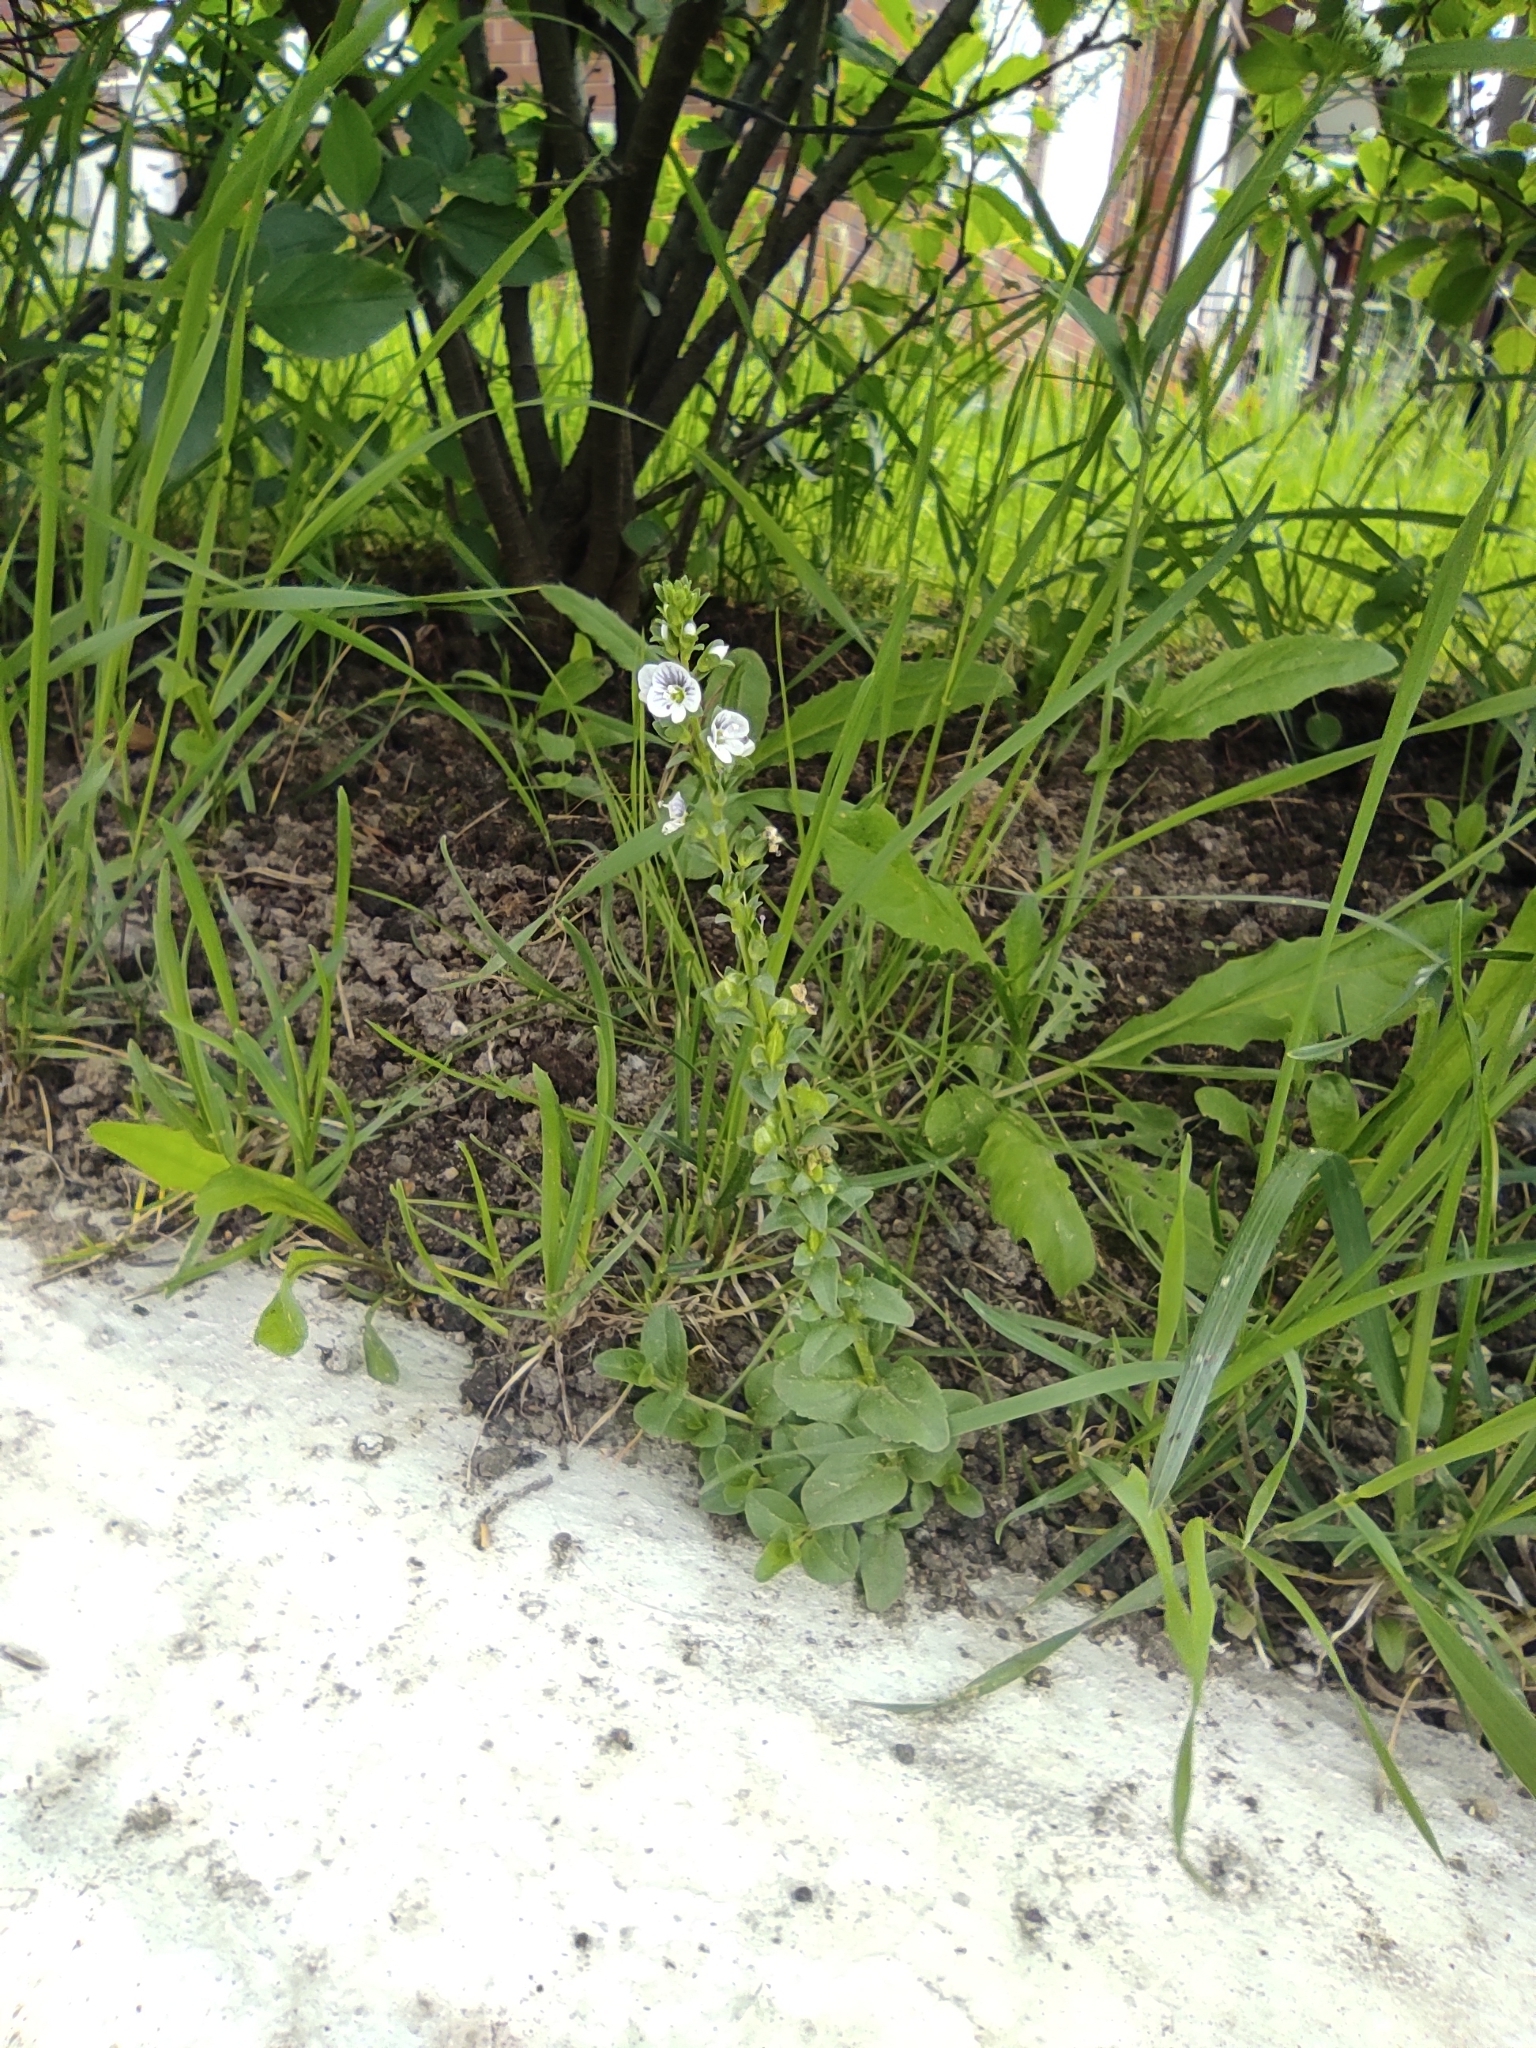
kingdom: Plantae
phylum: Tracheophyta
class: Magnoliopsida
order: Lamiales
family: Plantaginaceae
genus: Veronica
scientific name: Veronica serpyllifolia
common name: Thyme-leaved speedwell
